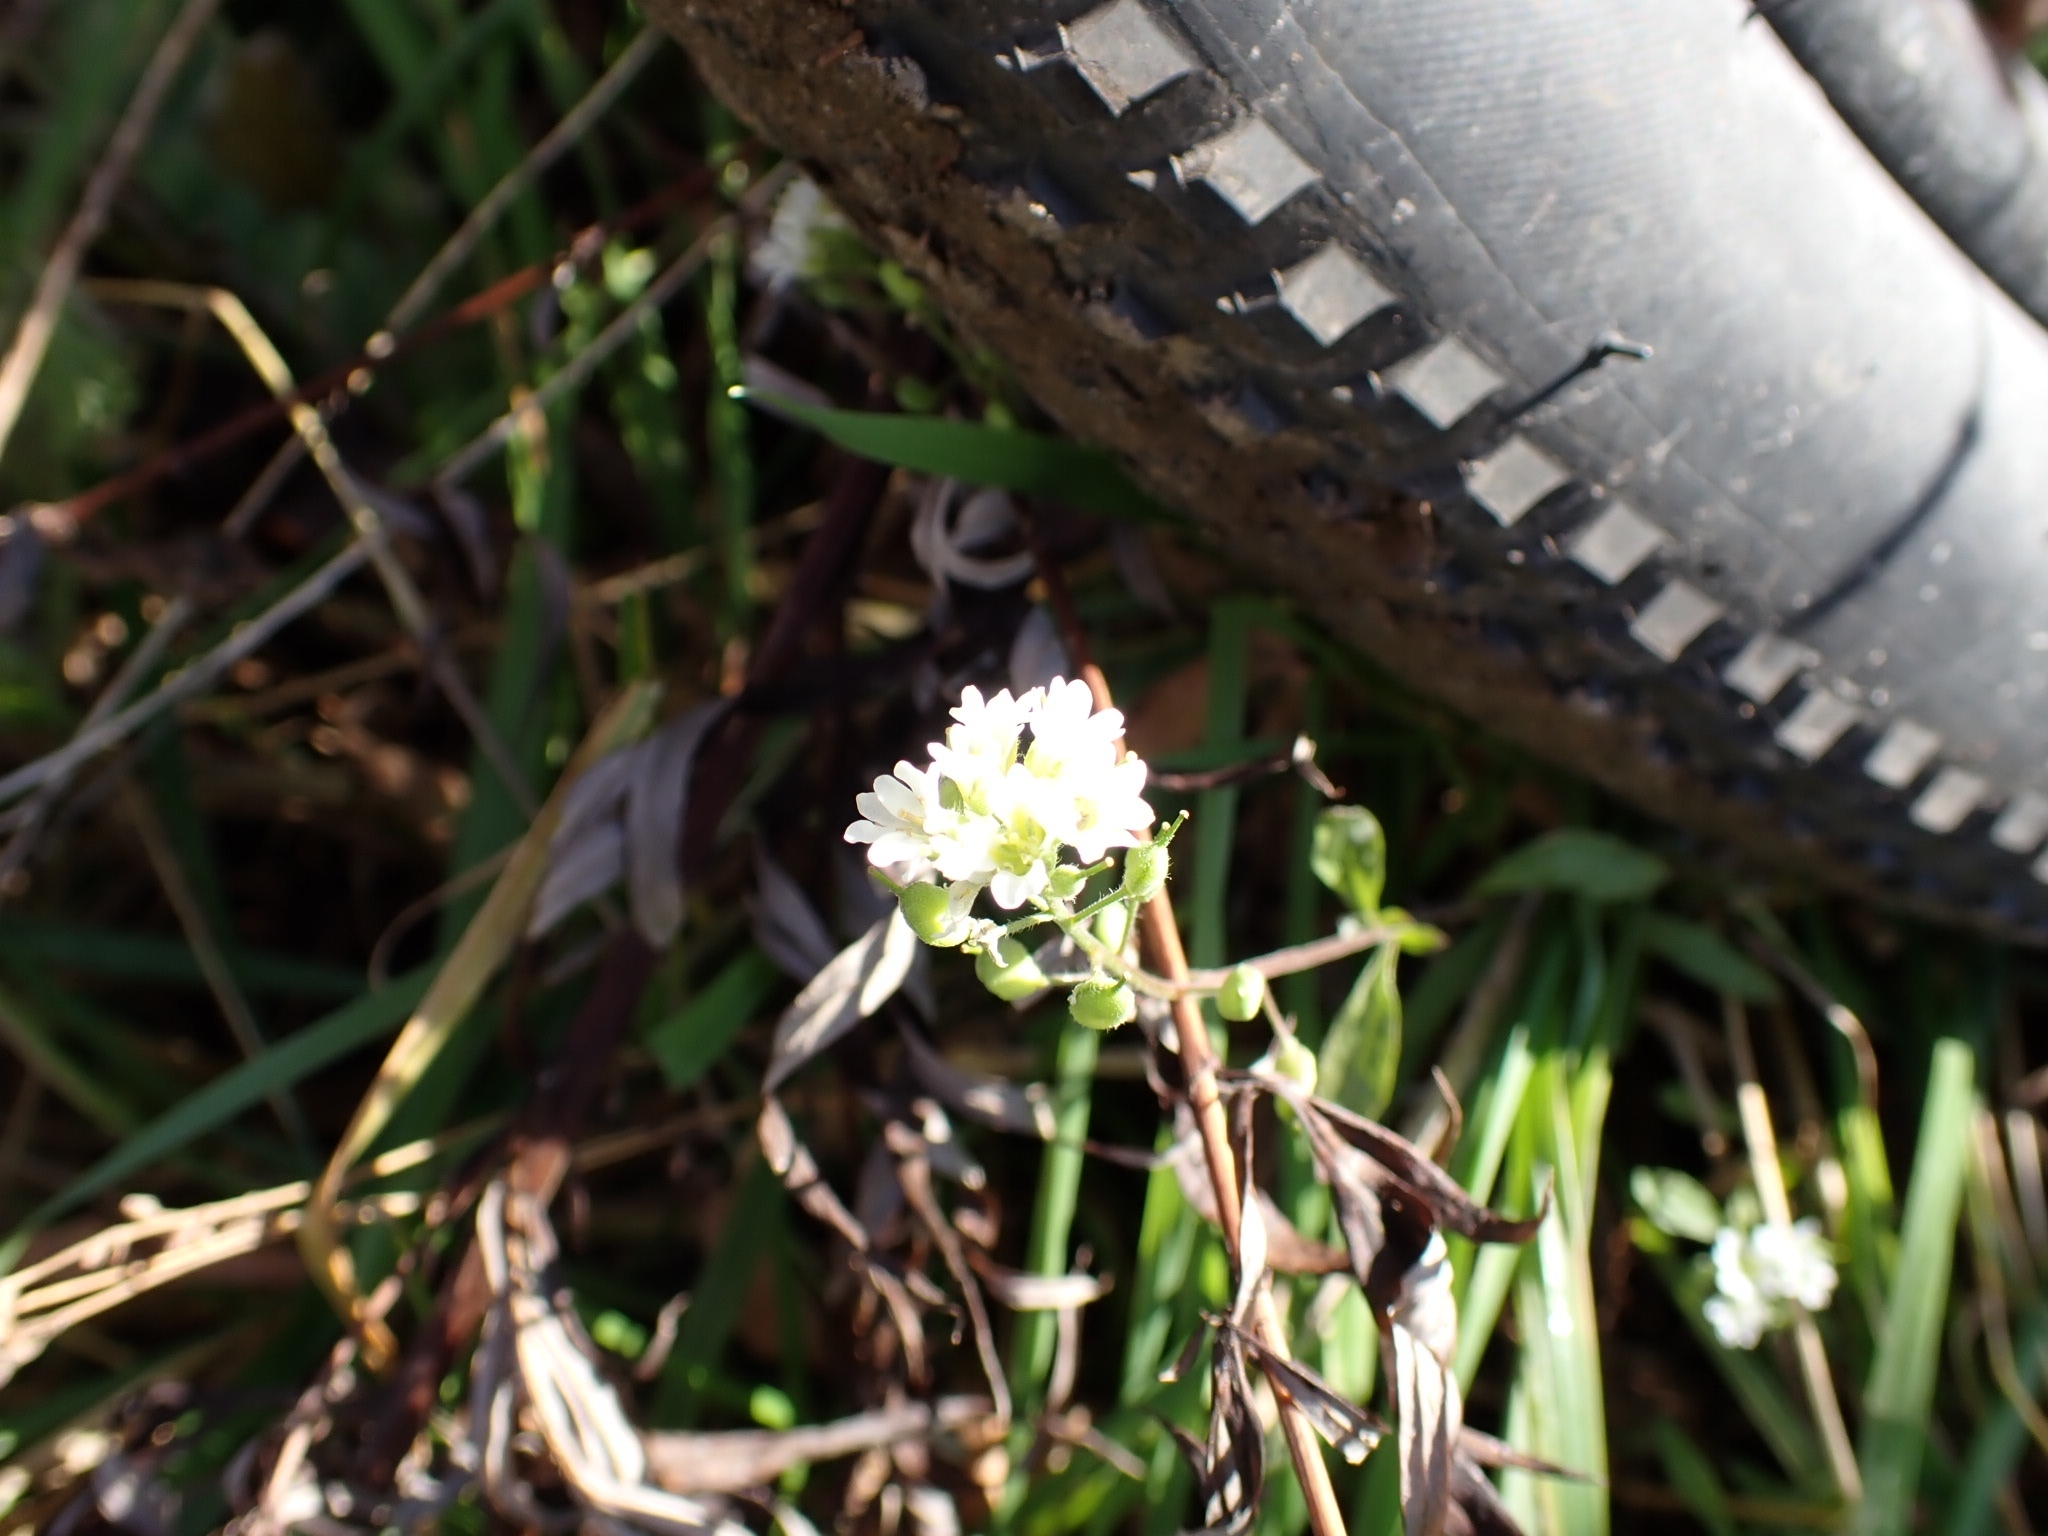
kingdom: Plantae
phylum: Tracheophyta
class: Magnoliopsida
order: Brassicales
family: Brassicaceae
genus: Berteroa
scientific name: Berteroa incana
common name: Hoary alison
